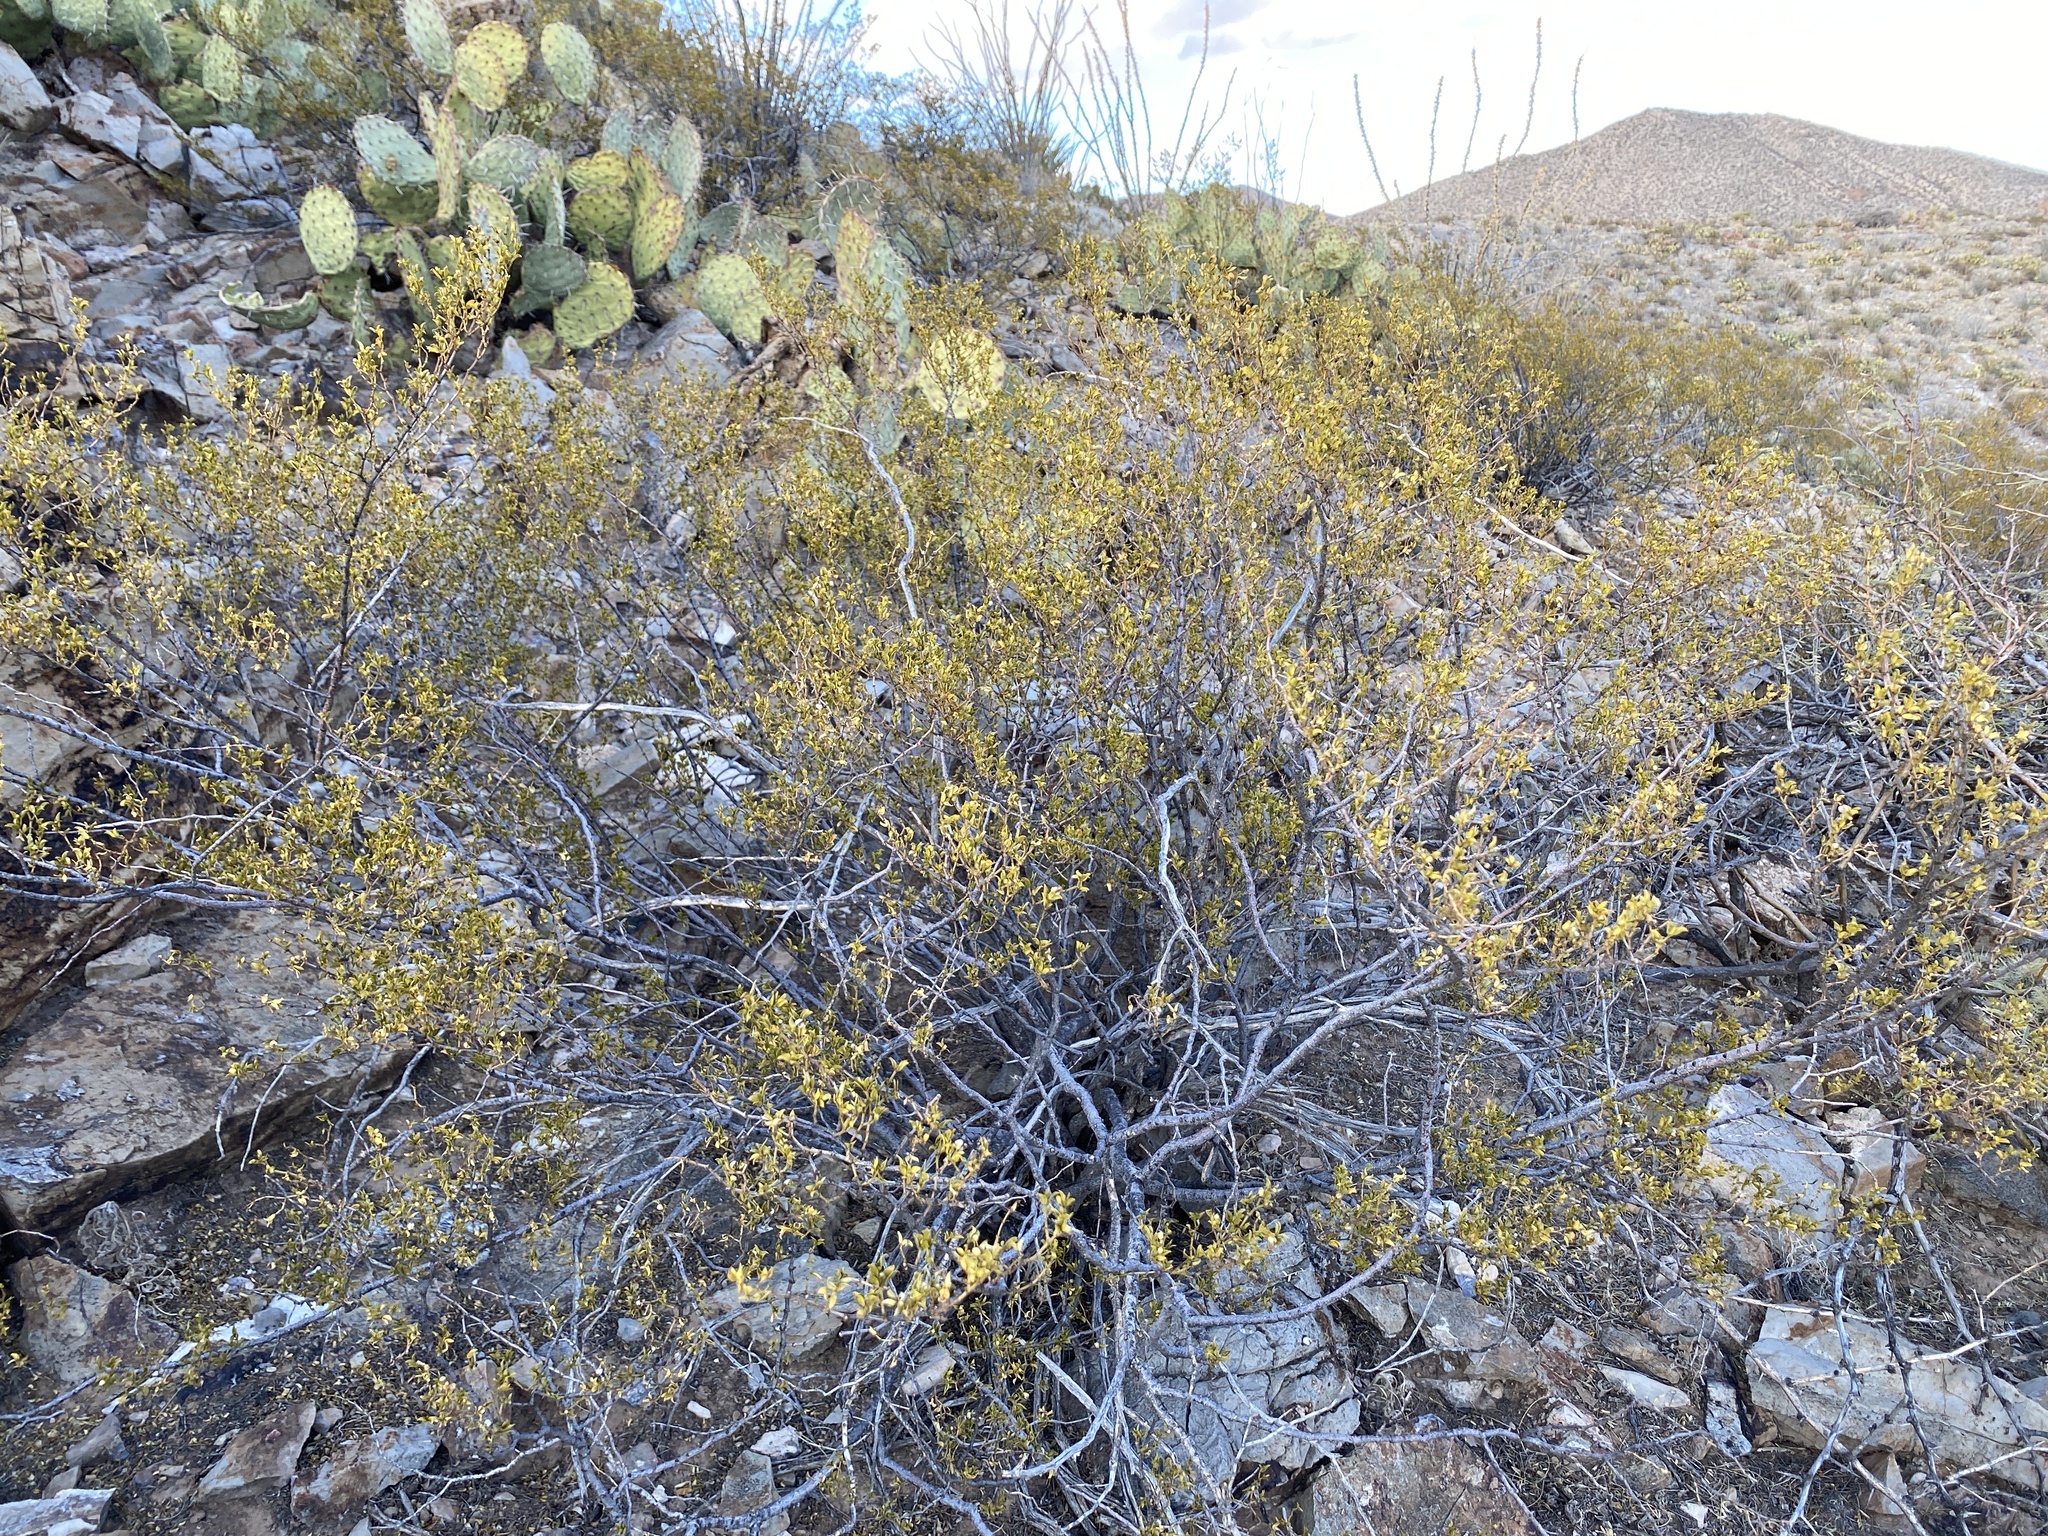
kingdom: Plantae
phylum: Tracheophyta
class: Magnoliopsida
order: Zygophyllales
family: Zygophyllaceae
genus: Larrea
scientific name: Larrea tridentata
